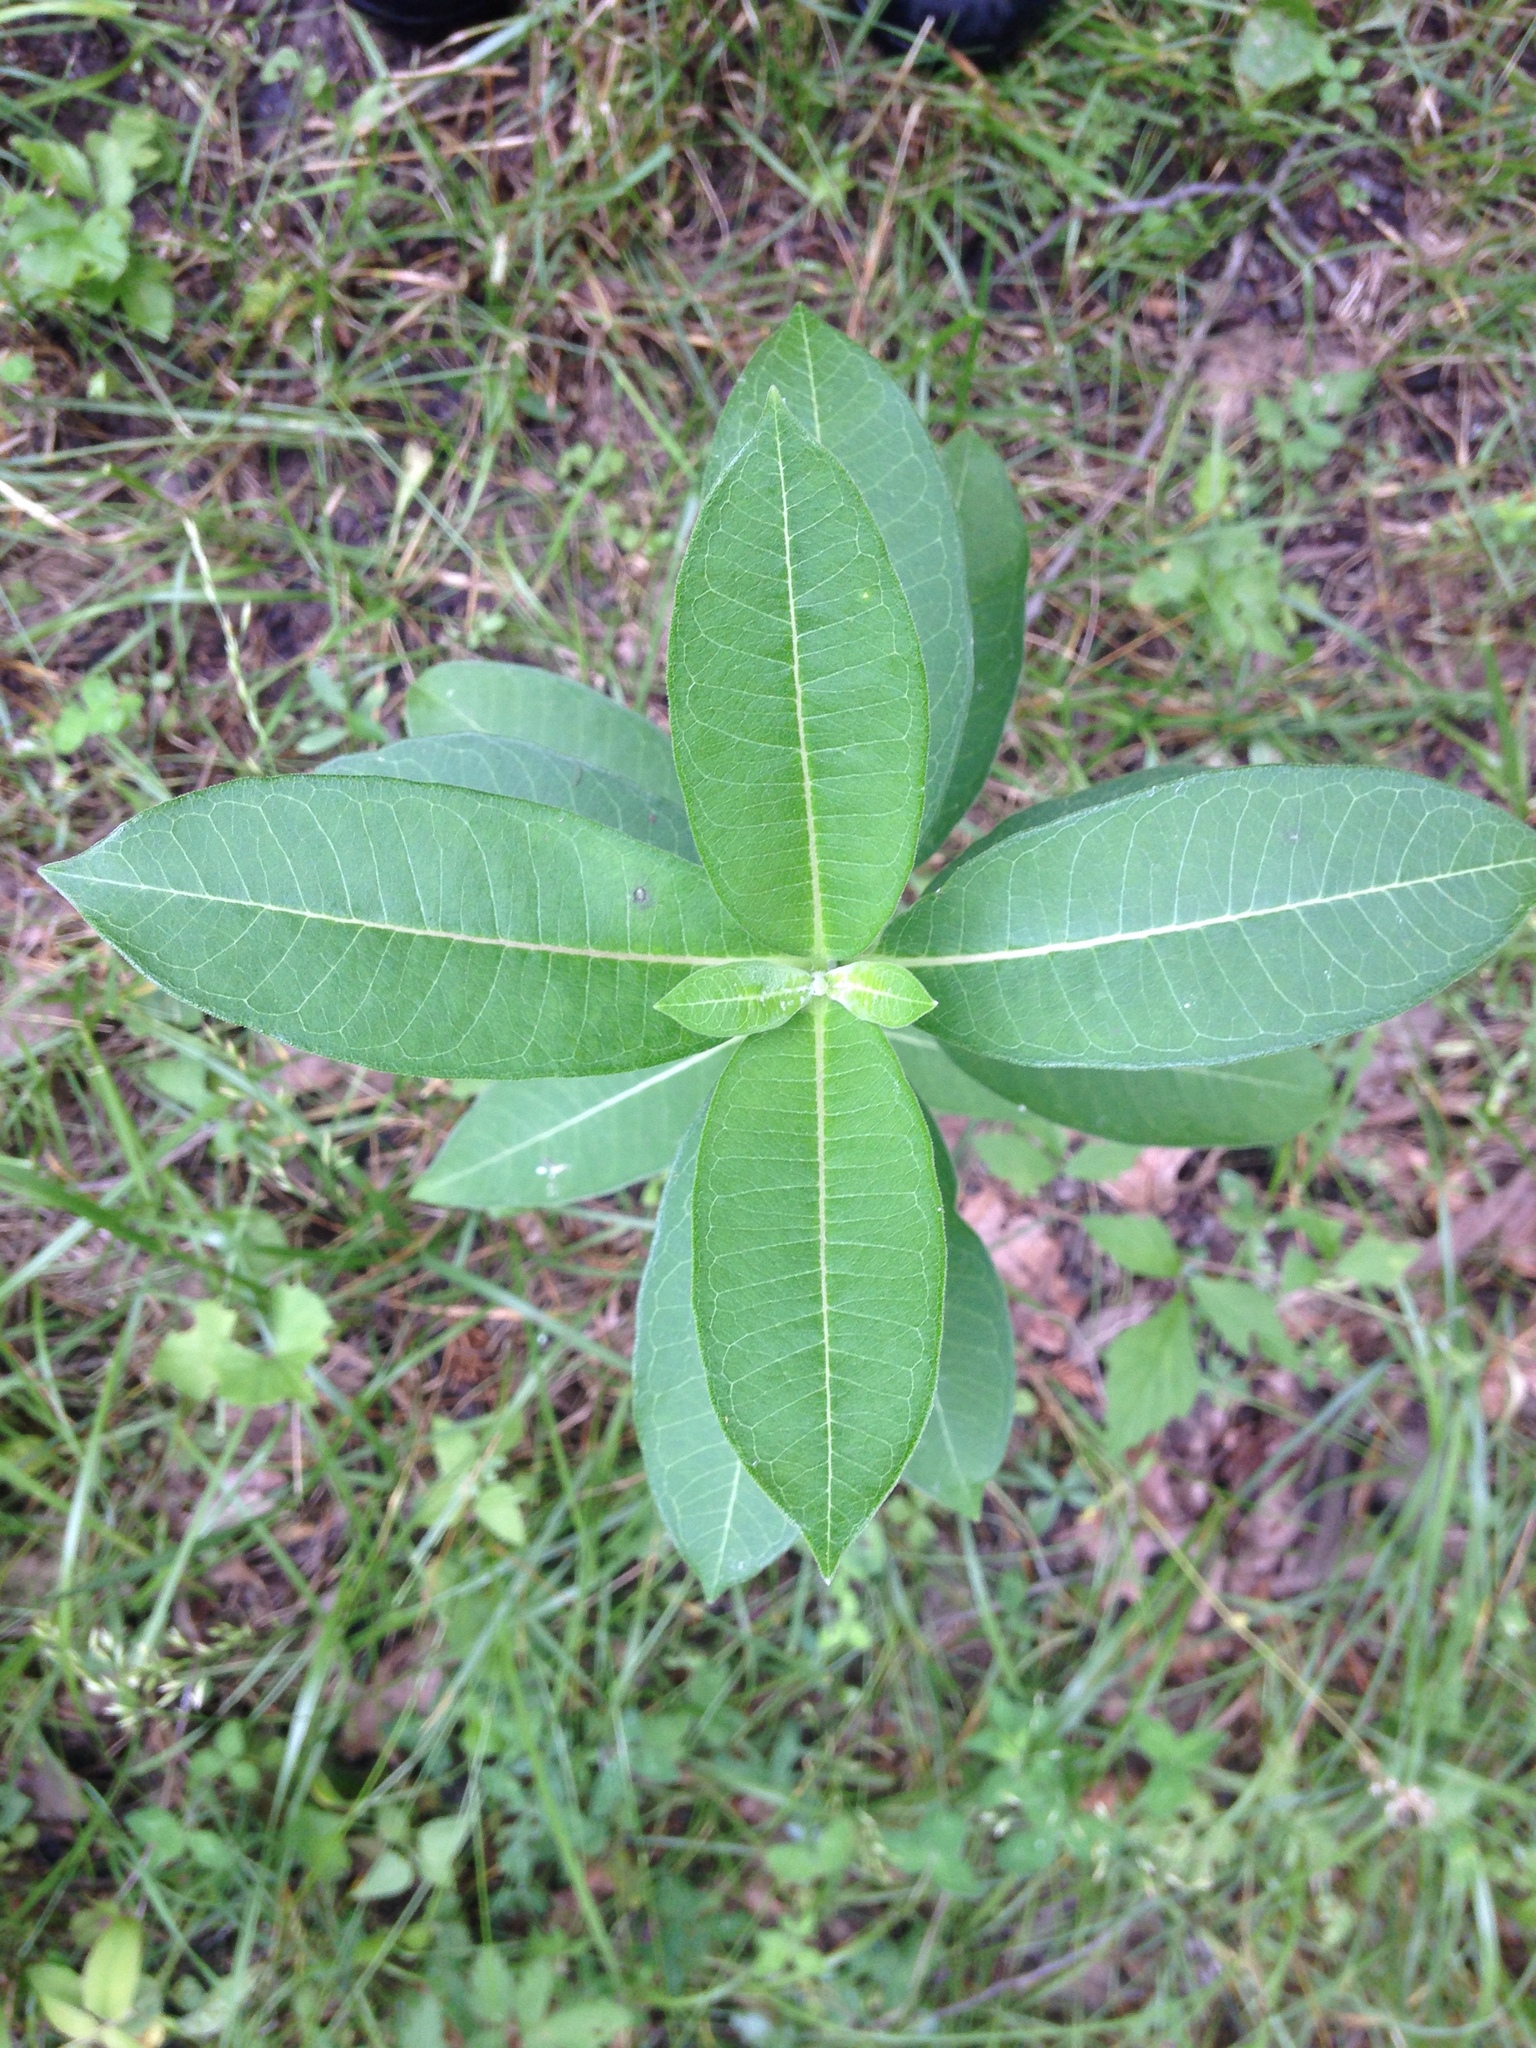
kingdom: Plantae
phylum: Tracheophyta
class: Magnoliopsida
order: Gentianales
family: Apocynaceae
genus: Asclepias
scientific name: Asclepias purpurascens
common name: Purple milkweed
